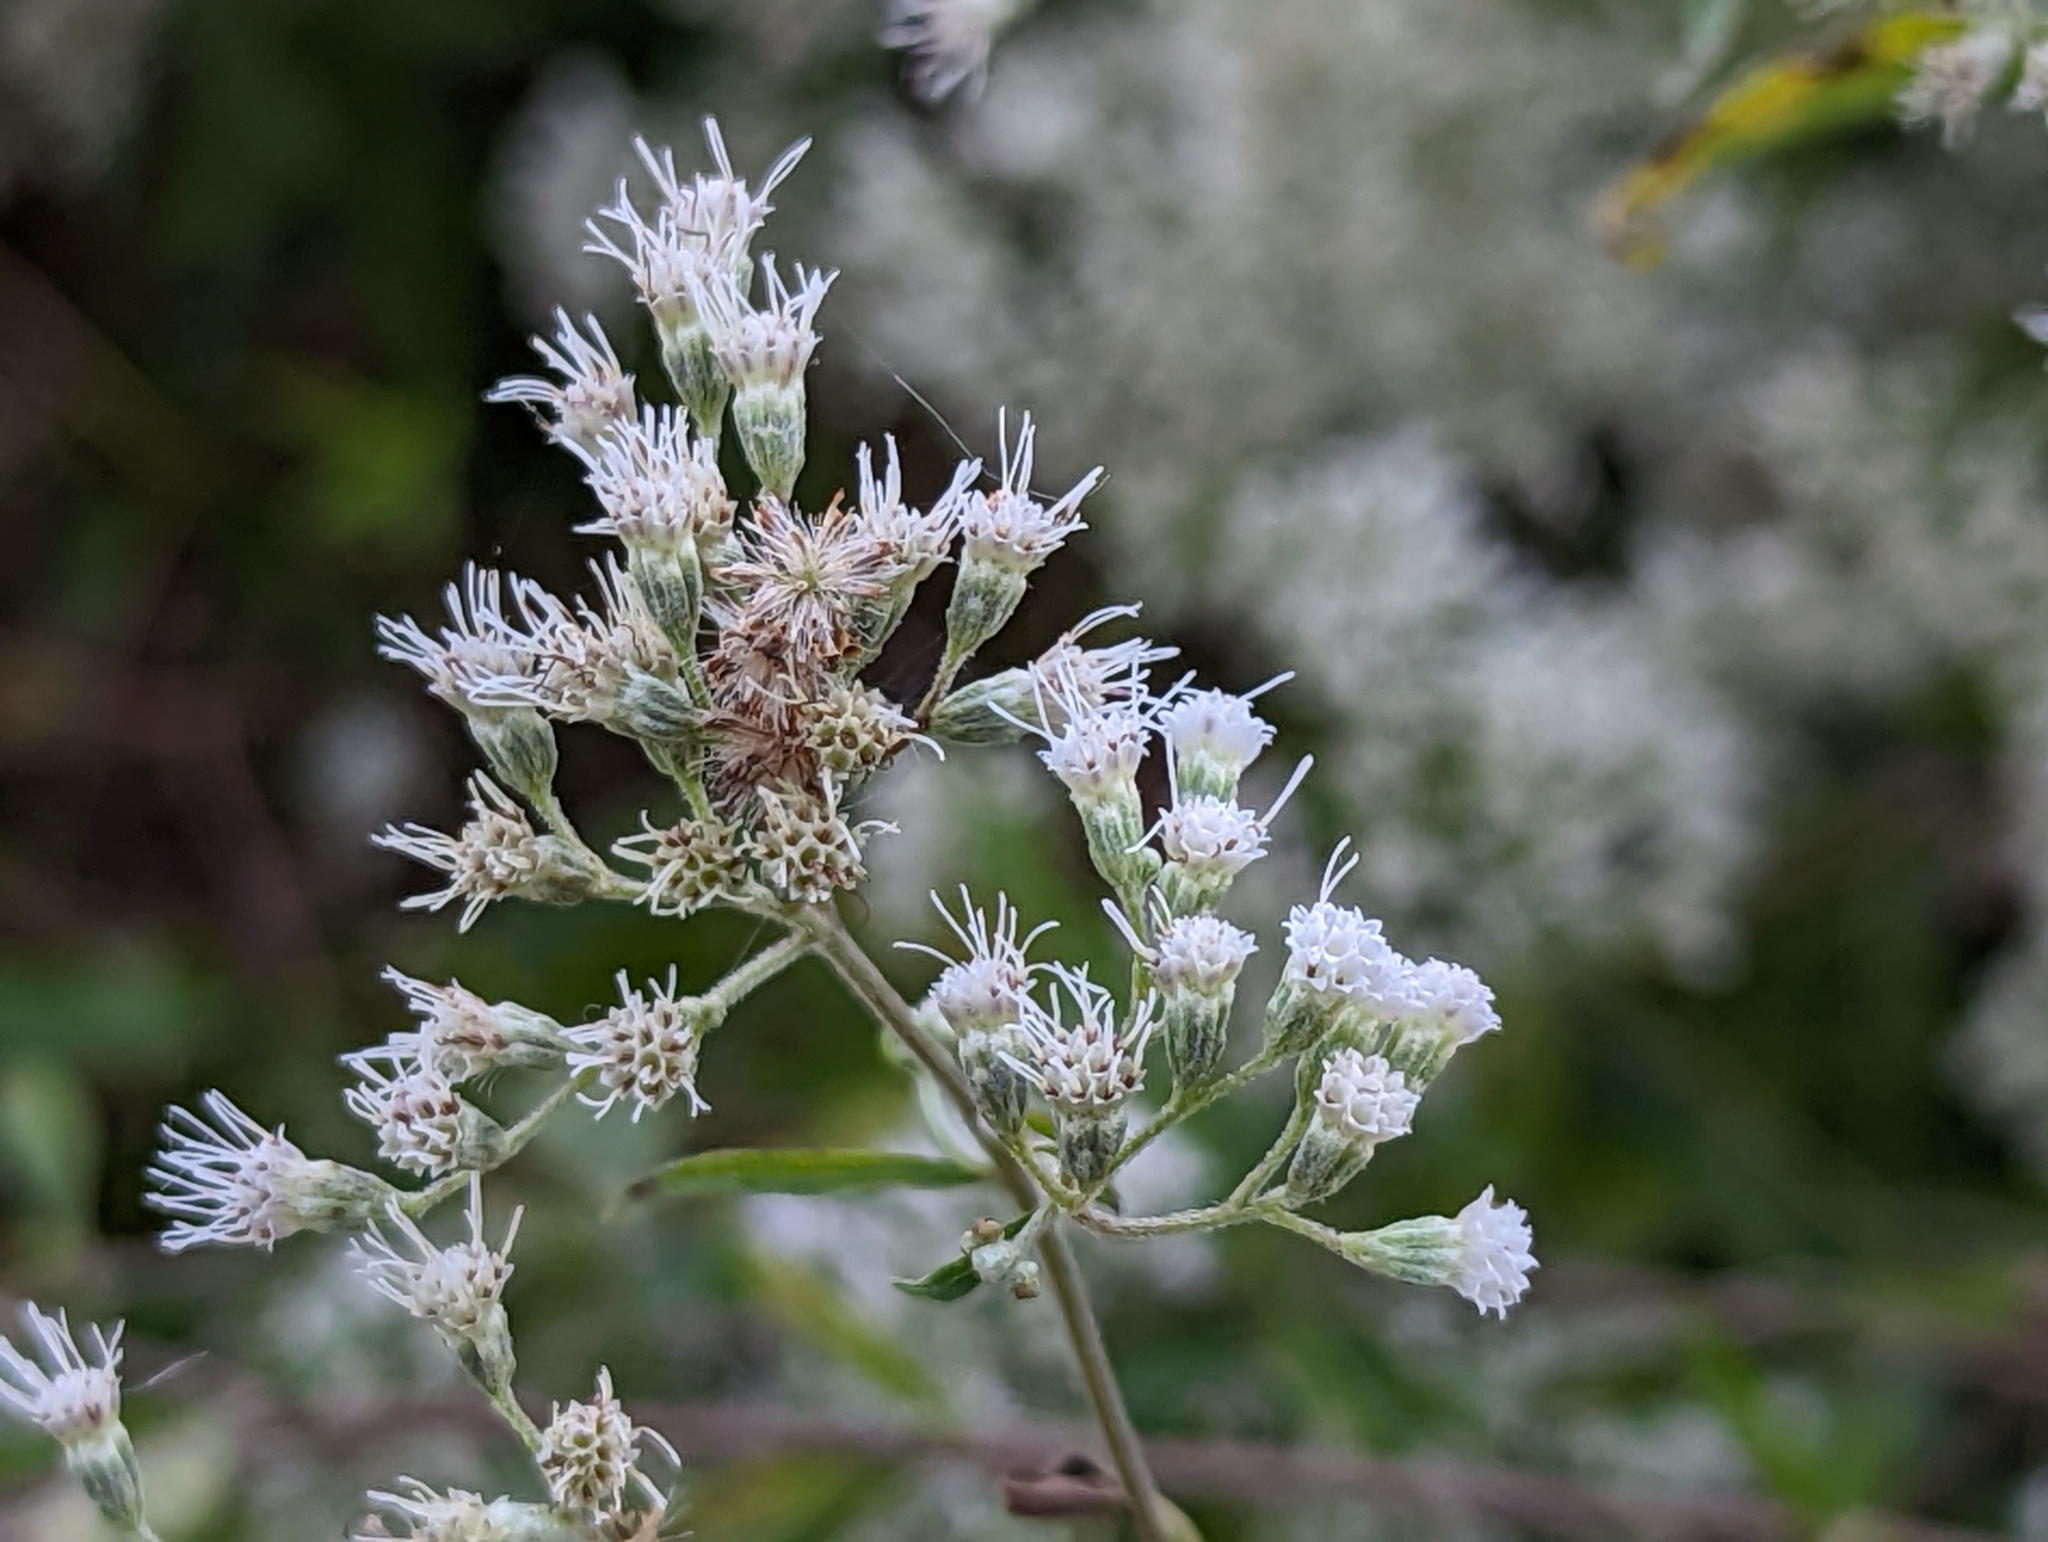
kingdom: Plantae
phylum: Tracheophyta
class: Magnoliopsida
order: Asterales
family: Asteraceae
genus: Eupatorium
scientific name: Eupatorium serotinum
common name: Late boneset
